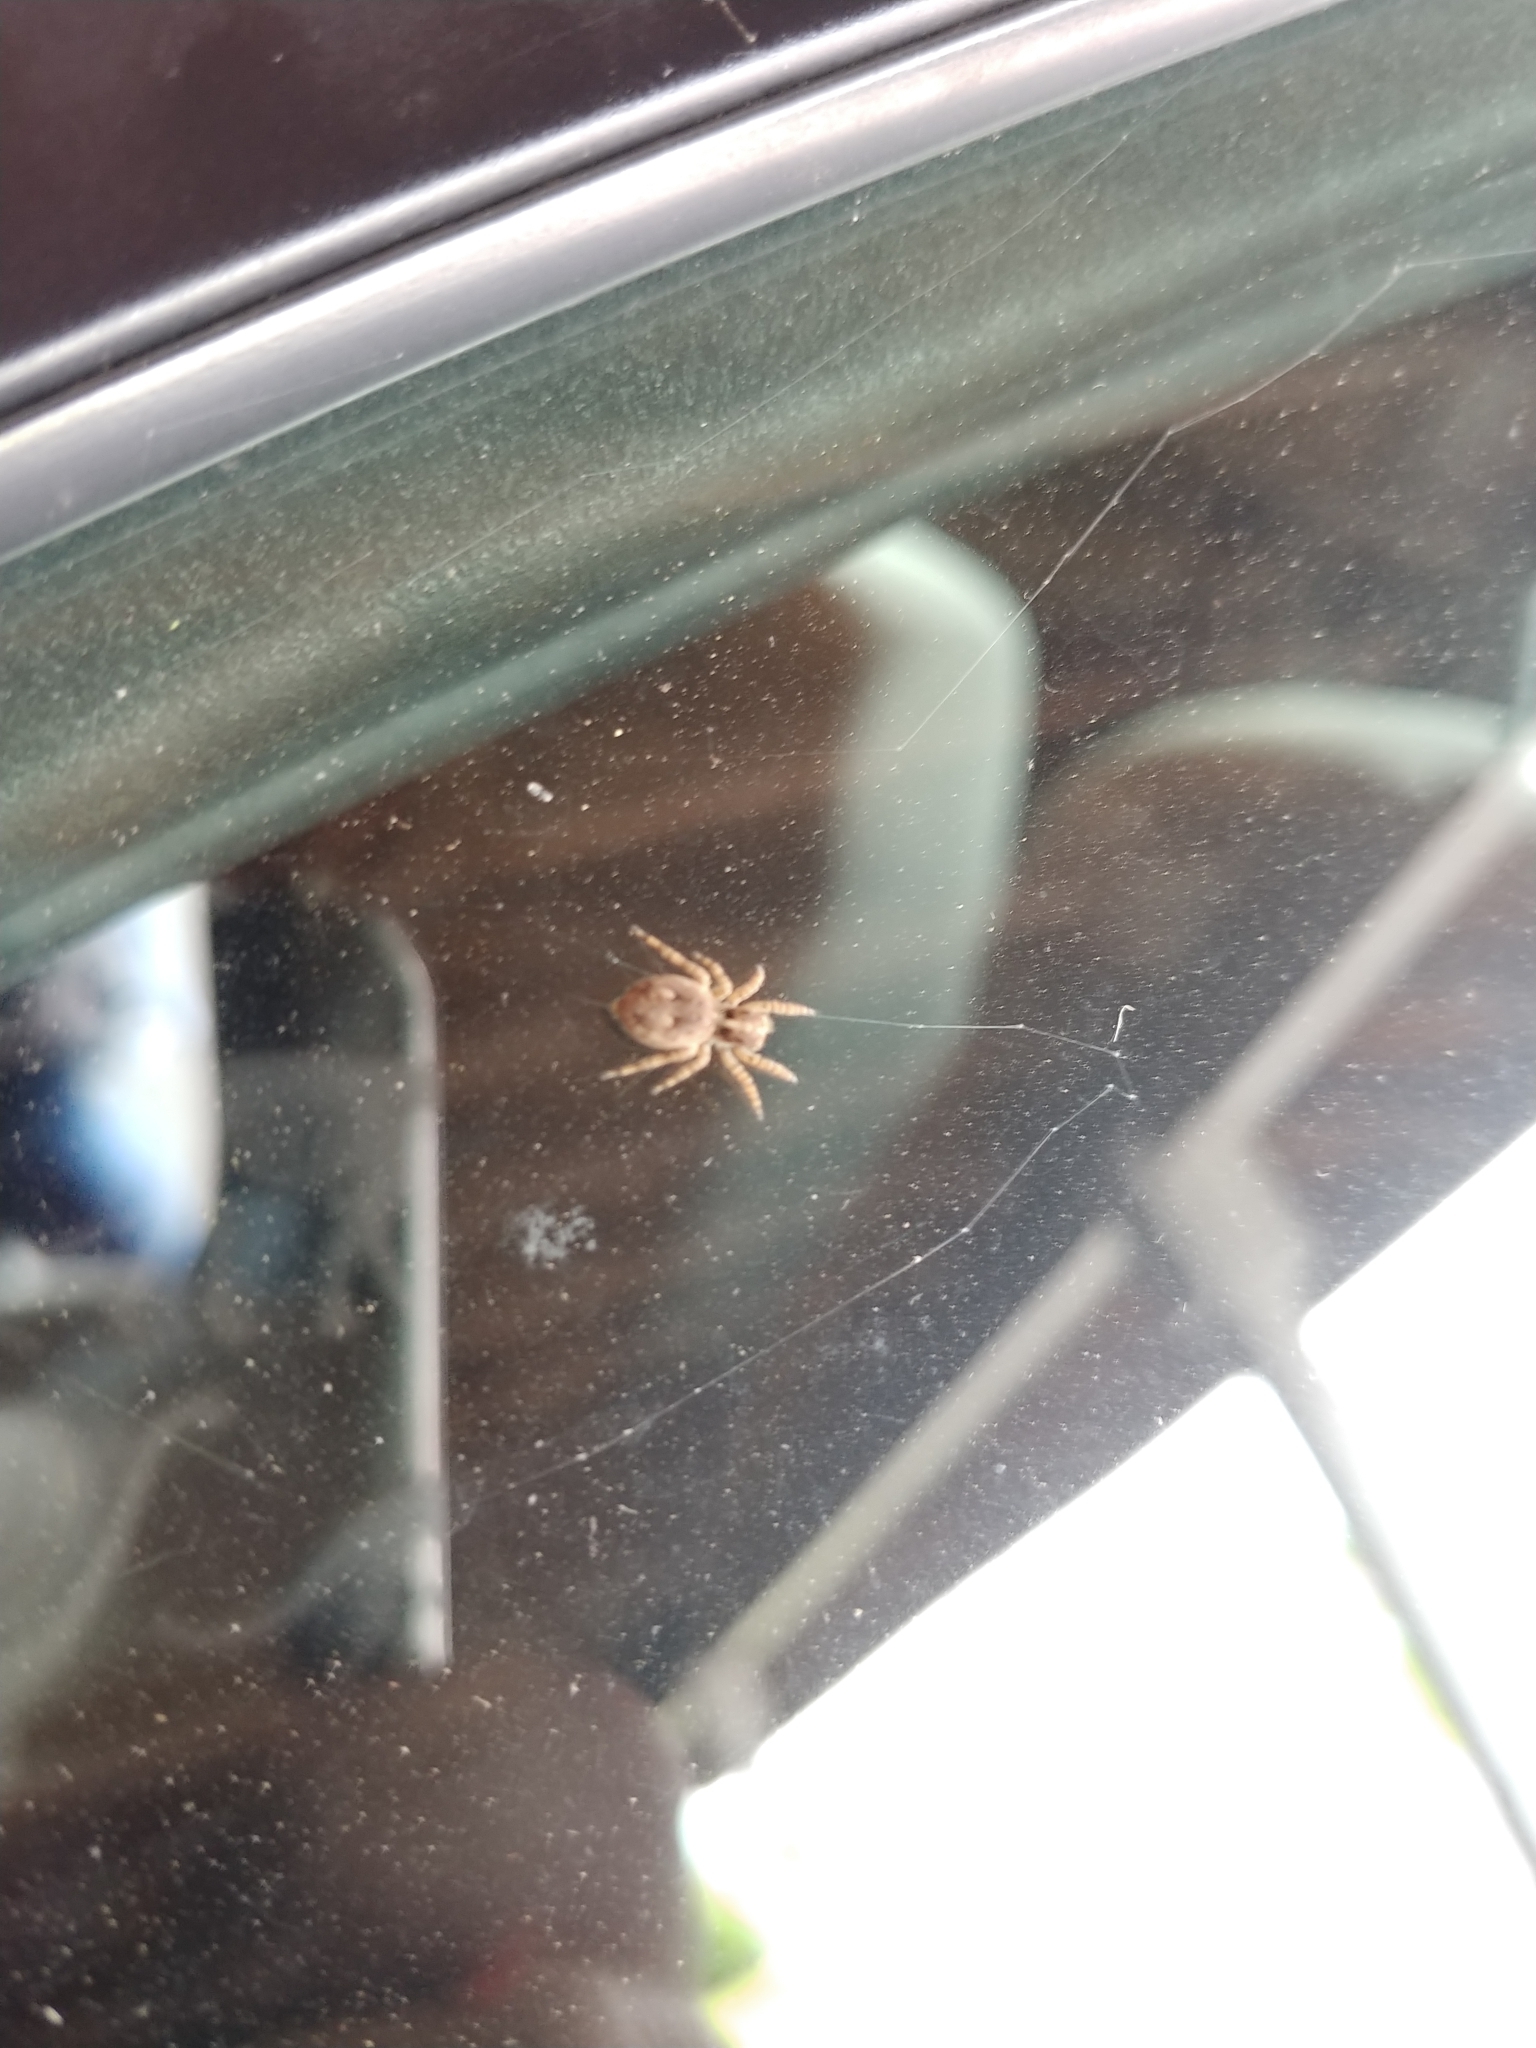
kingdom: Animalia
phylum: Arthropoda
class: Arachnida
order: Araneae
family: Salticidae
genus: Attulus
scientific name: Attulus fasciger
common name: Asiatic wall jumping spider
